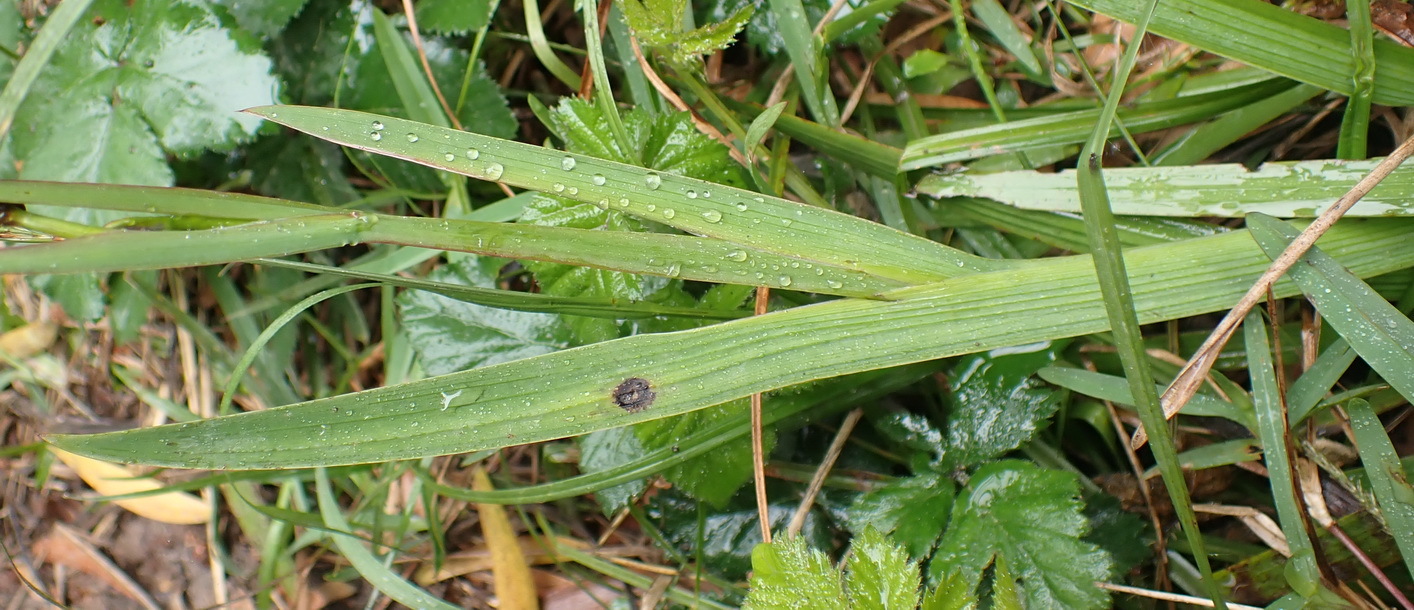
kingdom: Plantae
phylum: Tracheophyta
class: Liliopsida
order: Asparagales
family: Iridaceae
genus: Aristea
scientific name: Aristea ensifolia
